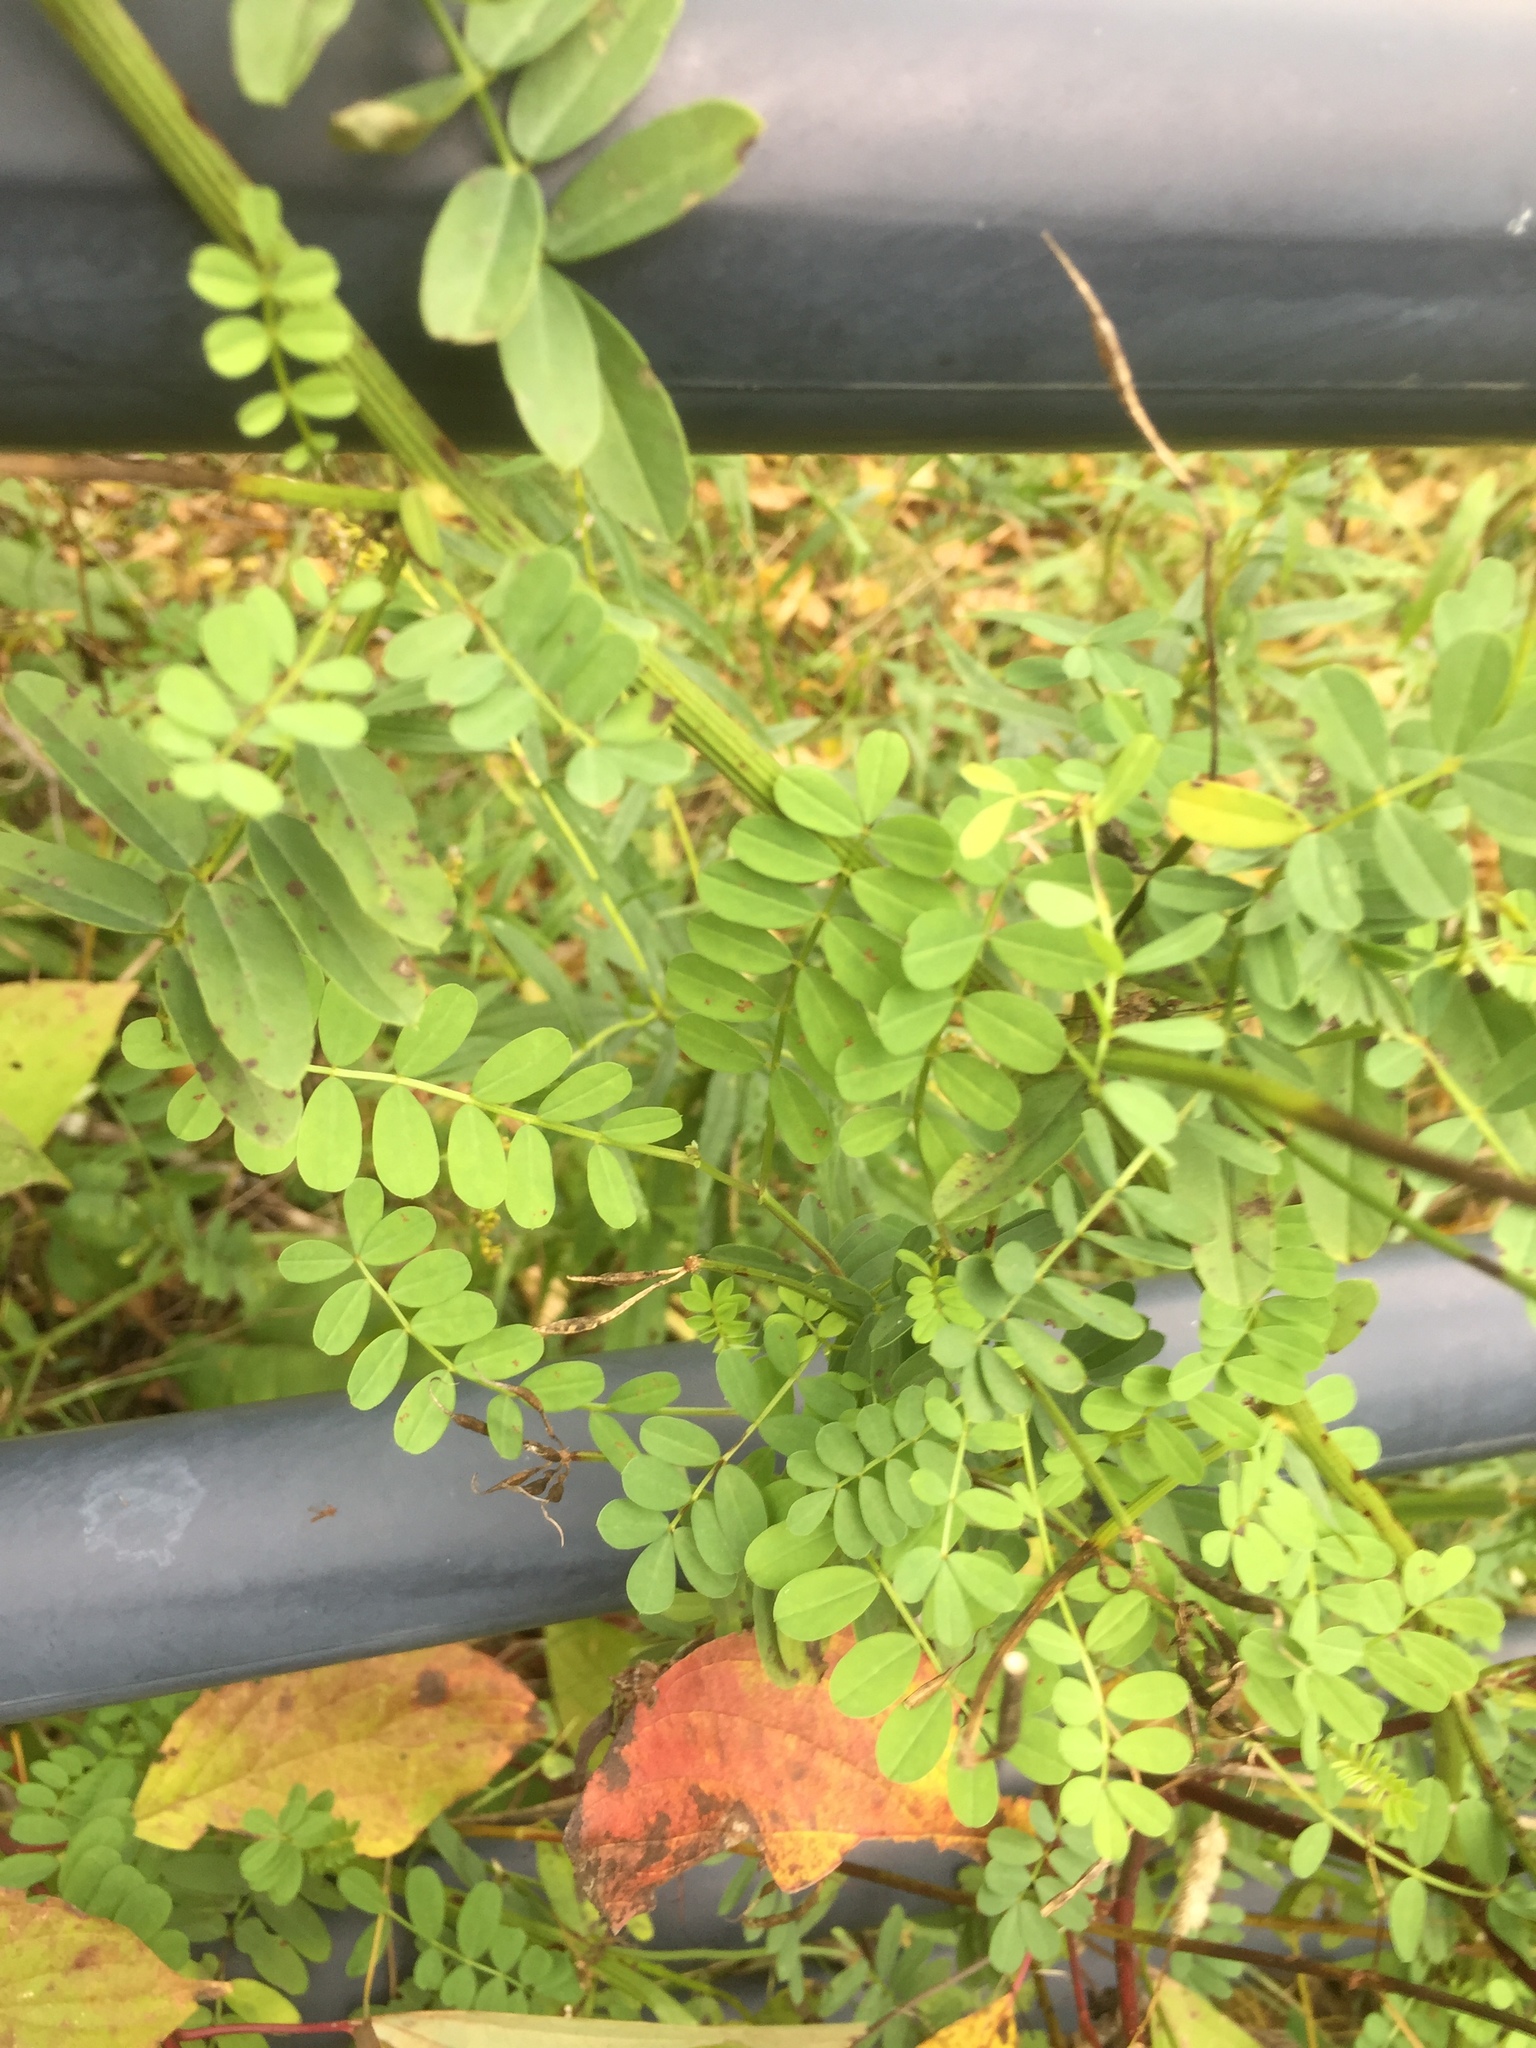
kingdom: Plantae
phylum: Tracheophyta
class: Magnoliopsida
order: Fabales
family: Fabaceae
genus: Coronilla
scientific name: Coronilla varia
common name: Crownvetch
